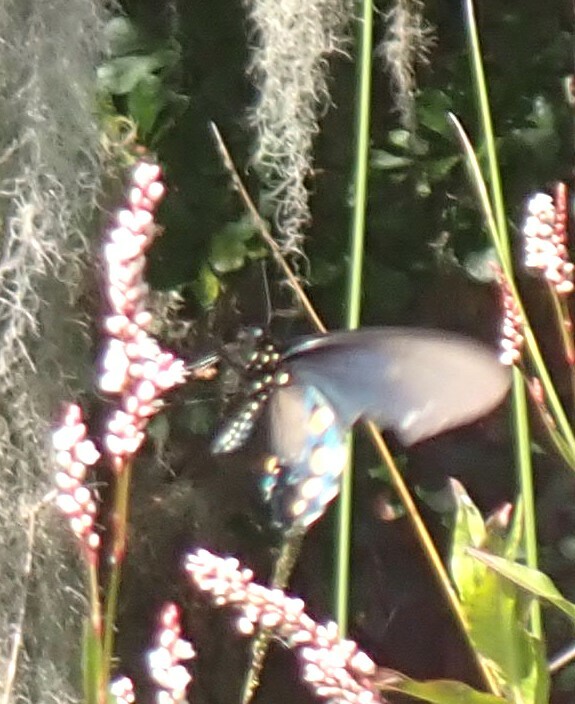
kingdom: Animalia
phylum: Arthropoda
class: Insecta
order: Lepidoptera
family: Papilionidae
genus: Battus
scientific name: Battus philenor
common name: Pipevine swallowtail
